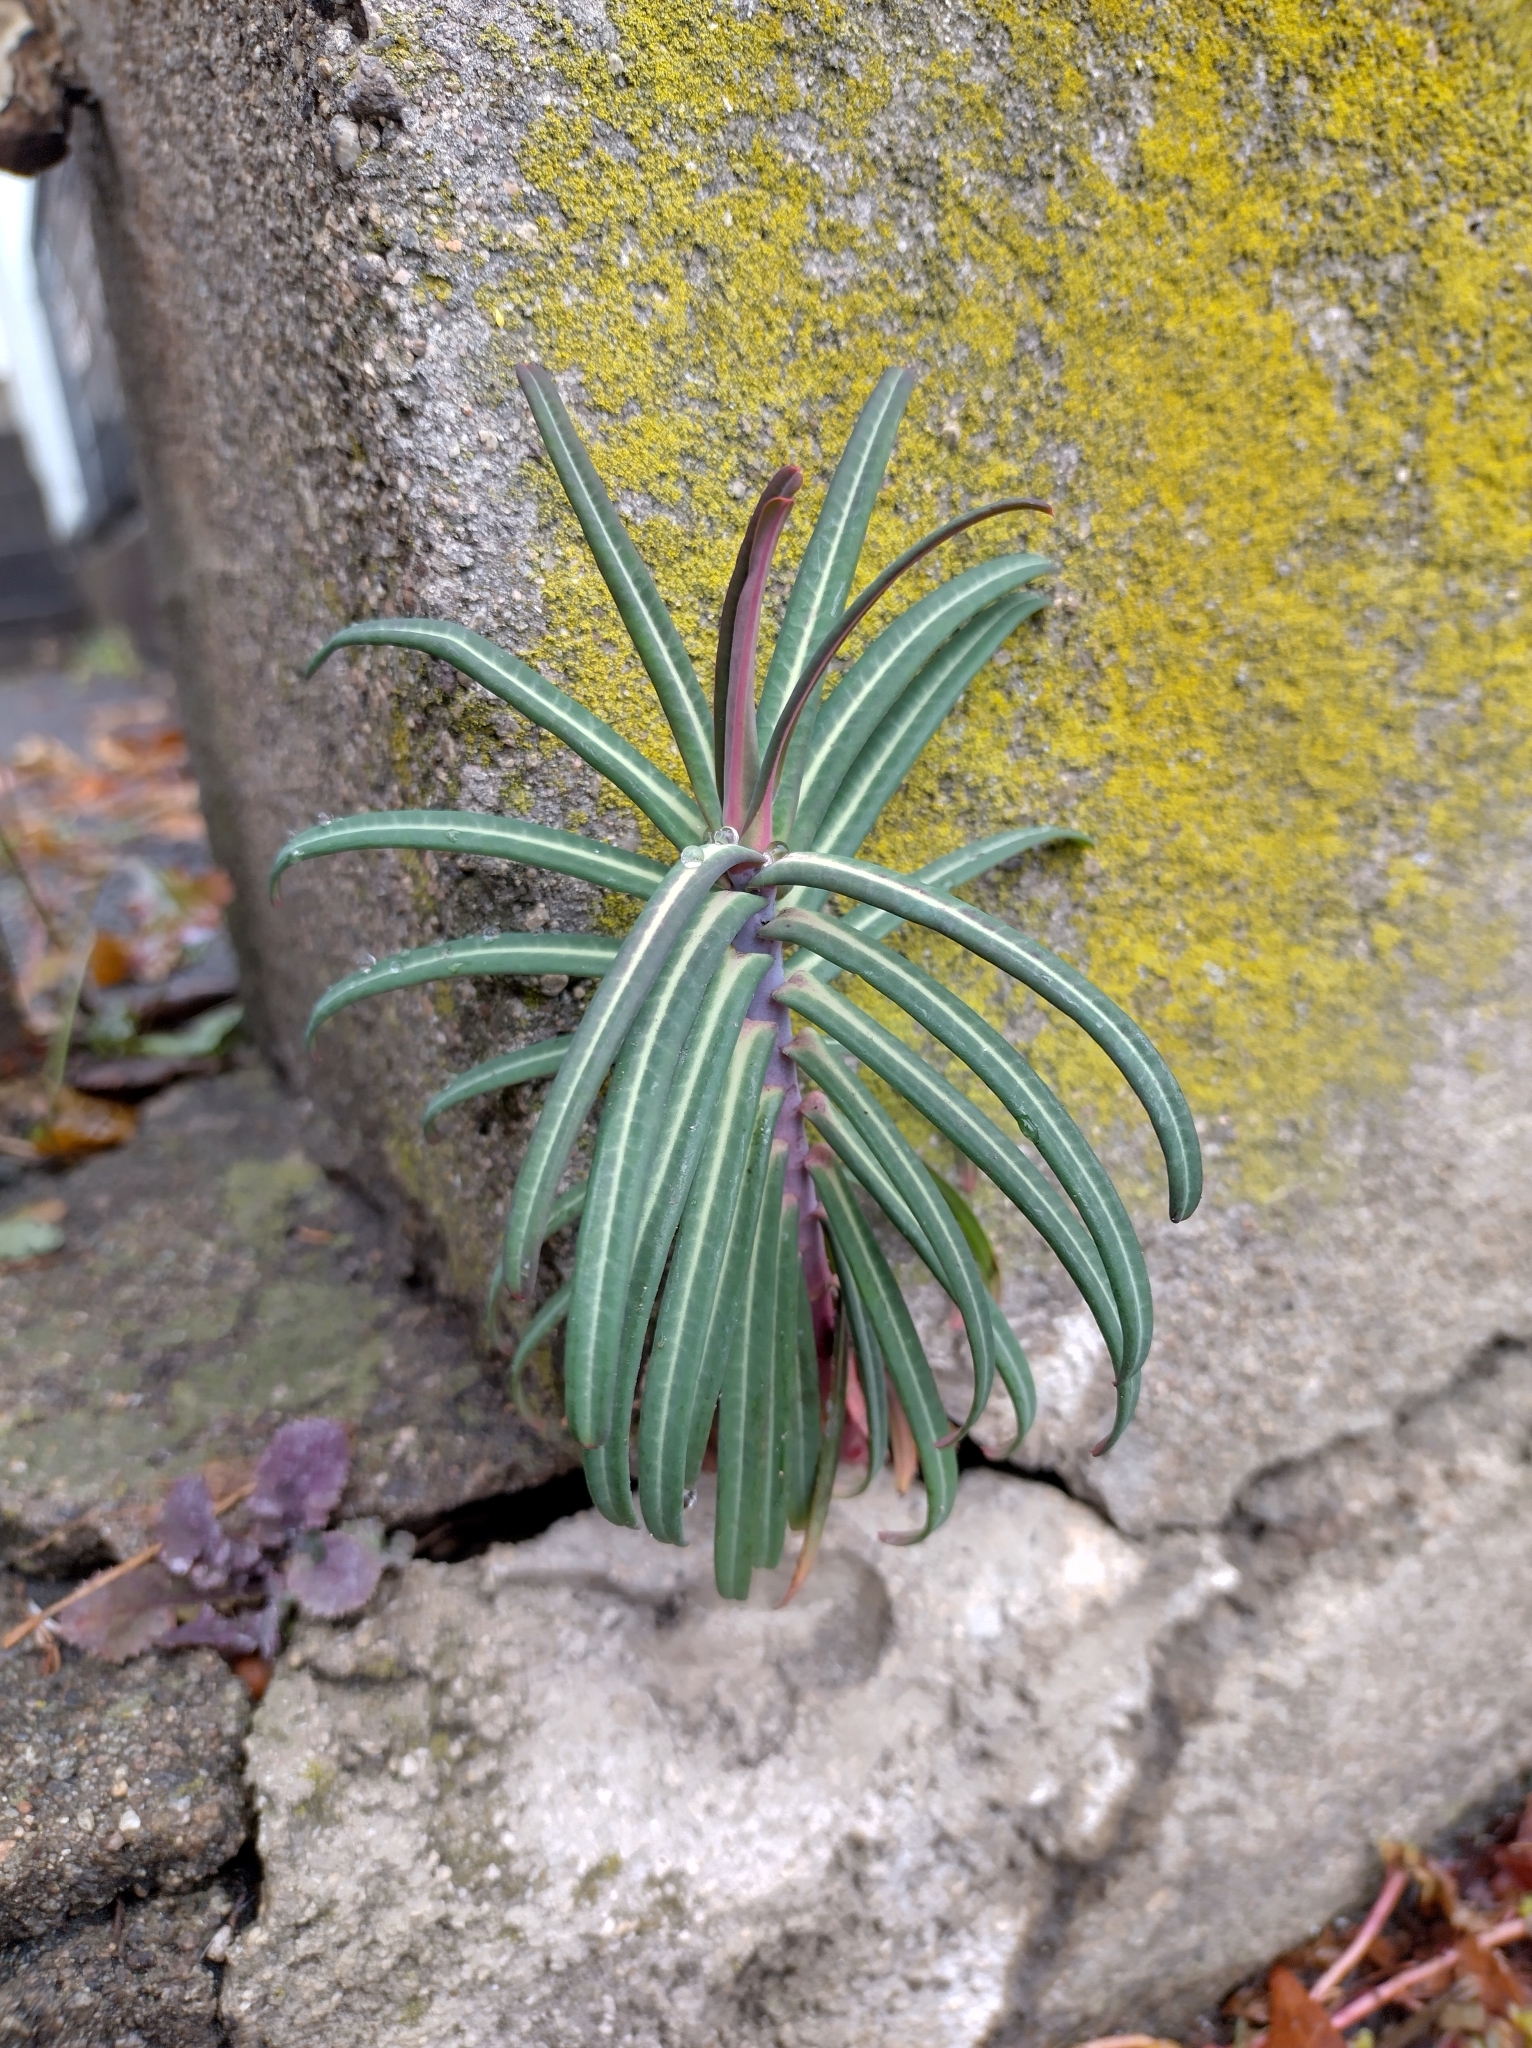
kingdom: Plantae
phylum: Tracheophyta
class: Magnoliopsida
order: Malpighiales
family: Euphorbiaceae
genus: Euphorbia
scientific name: Euphorbia lathyris
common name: Caper spurge
